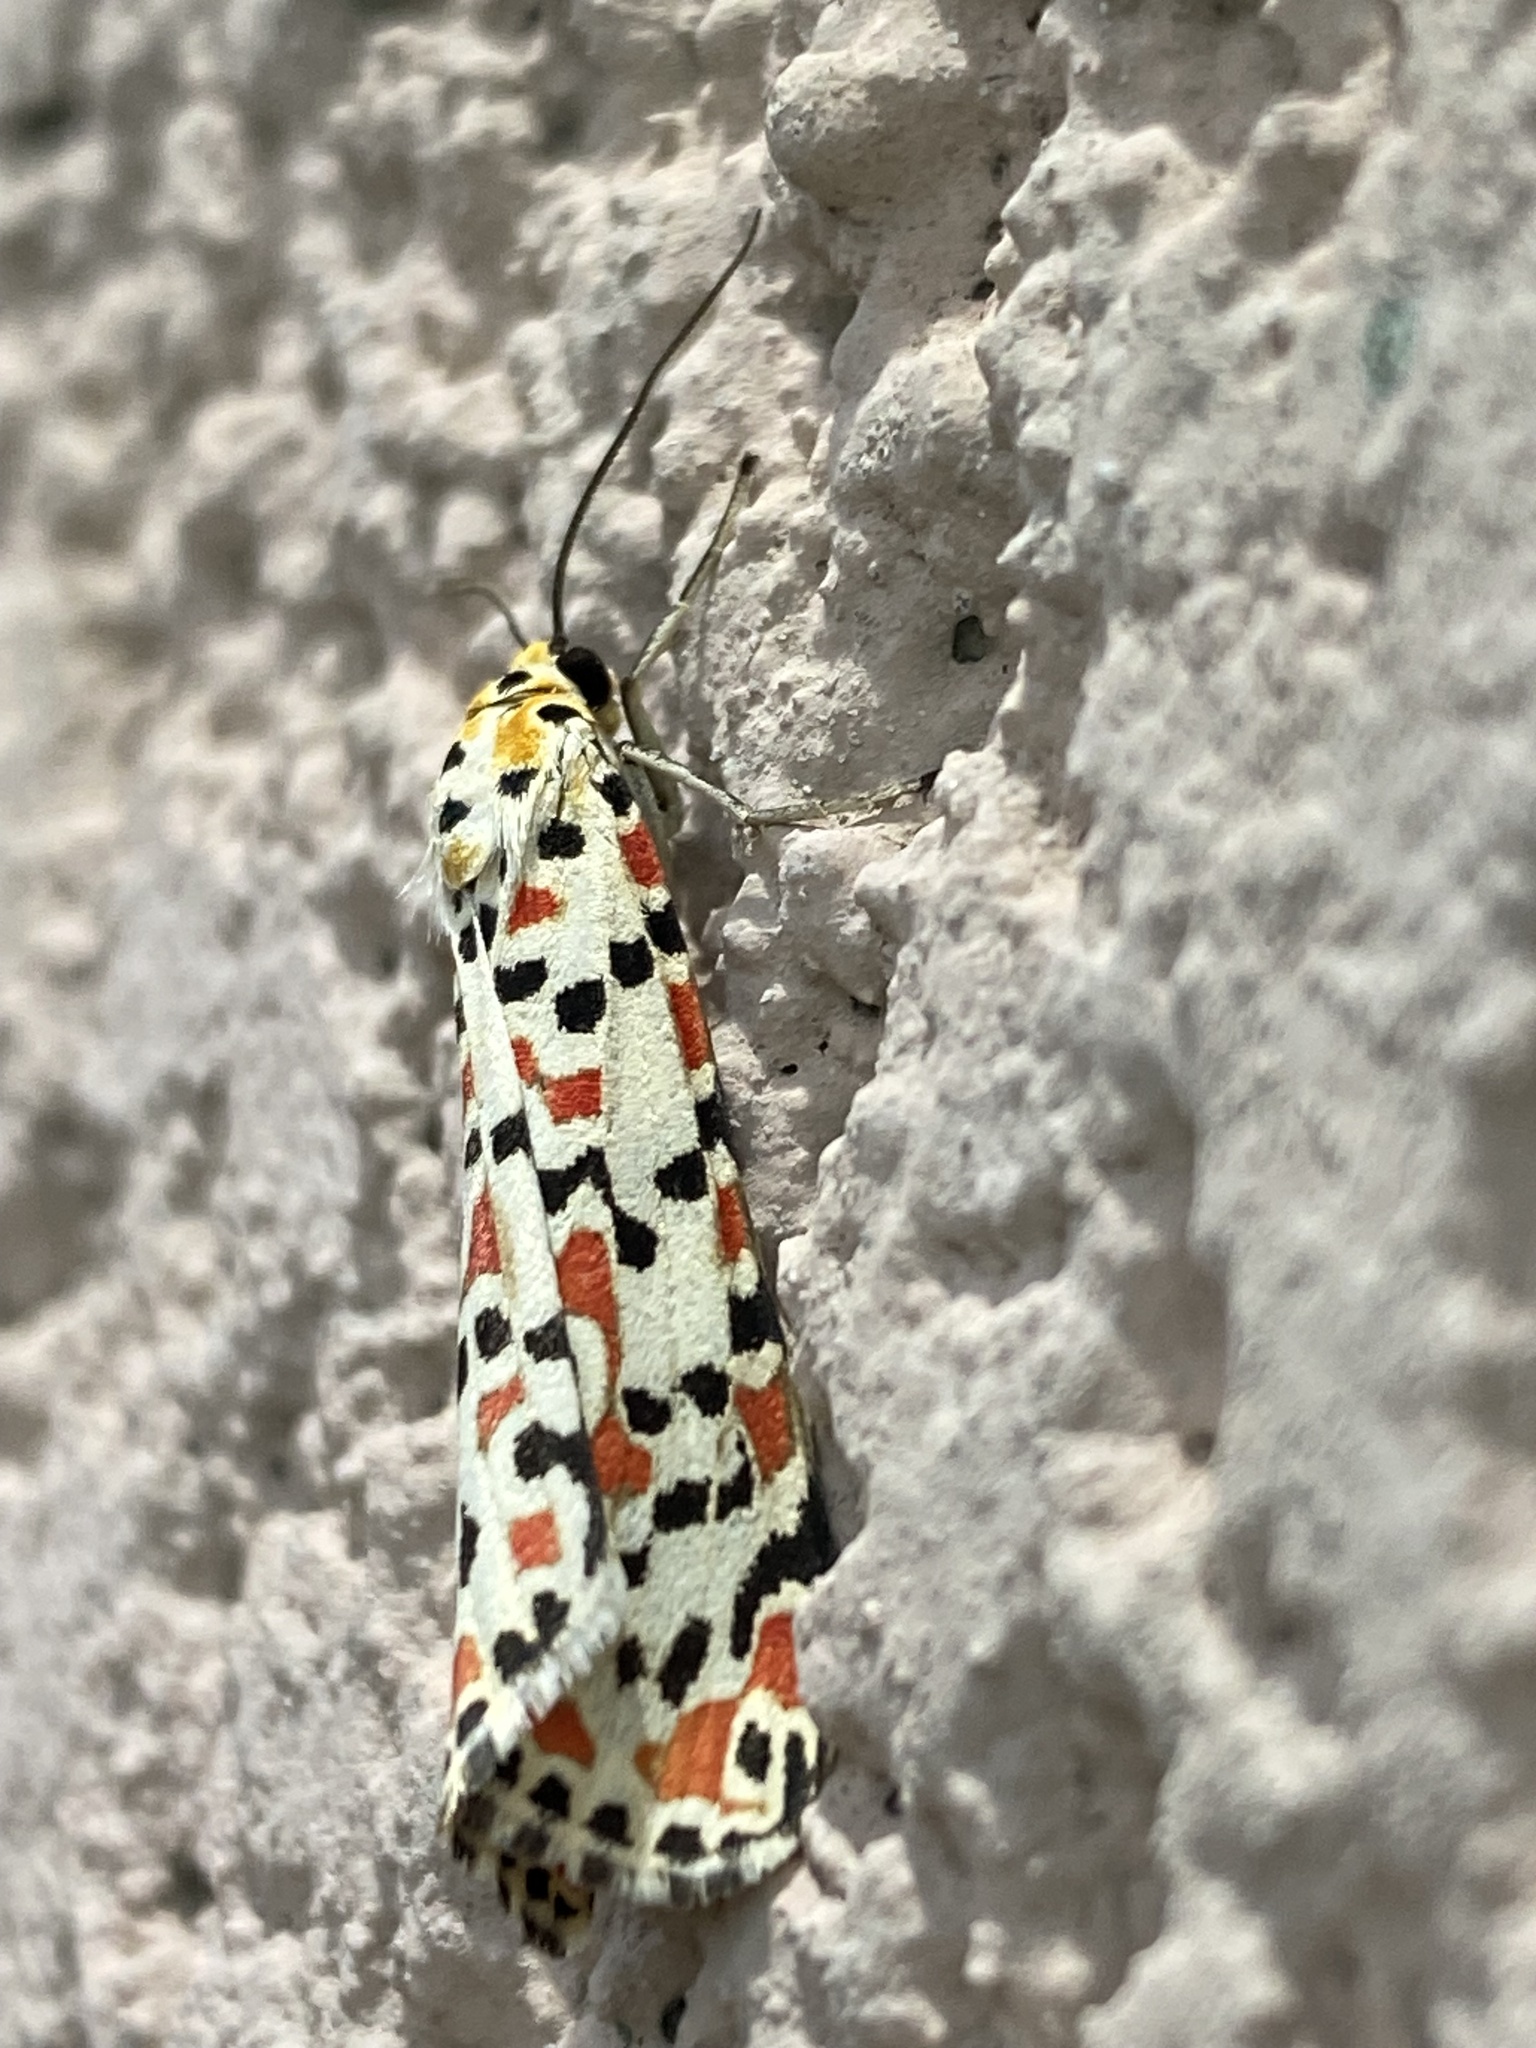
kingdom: Animalia
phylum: Arthropoda
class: Insecta
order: Lepidoptera
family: Erebidae
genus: Utetheisa
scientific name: Utetheisa pulchella
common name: Crimson speckled
